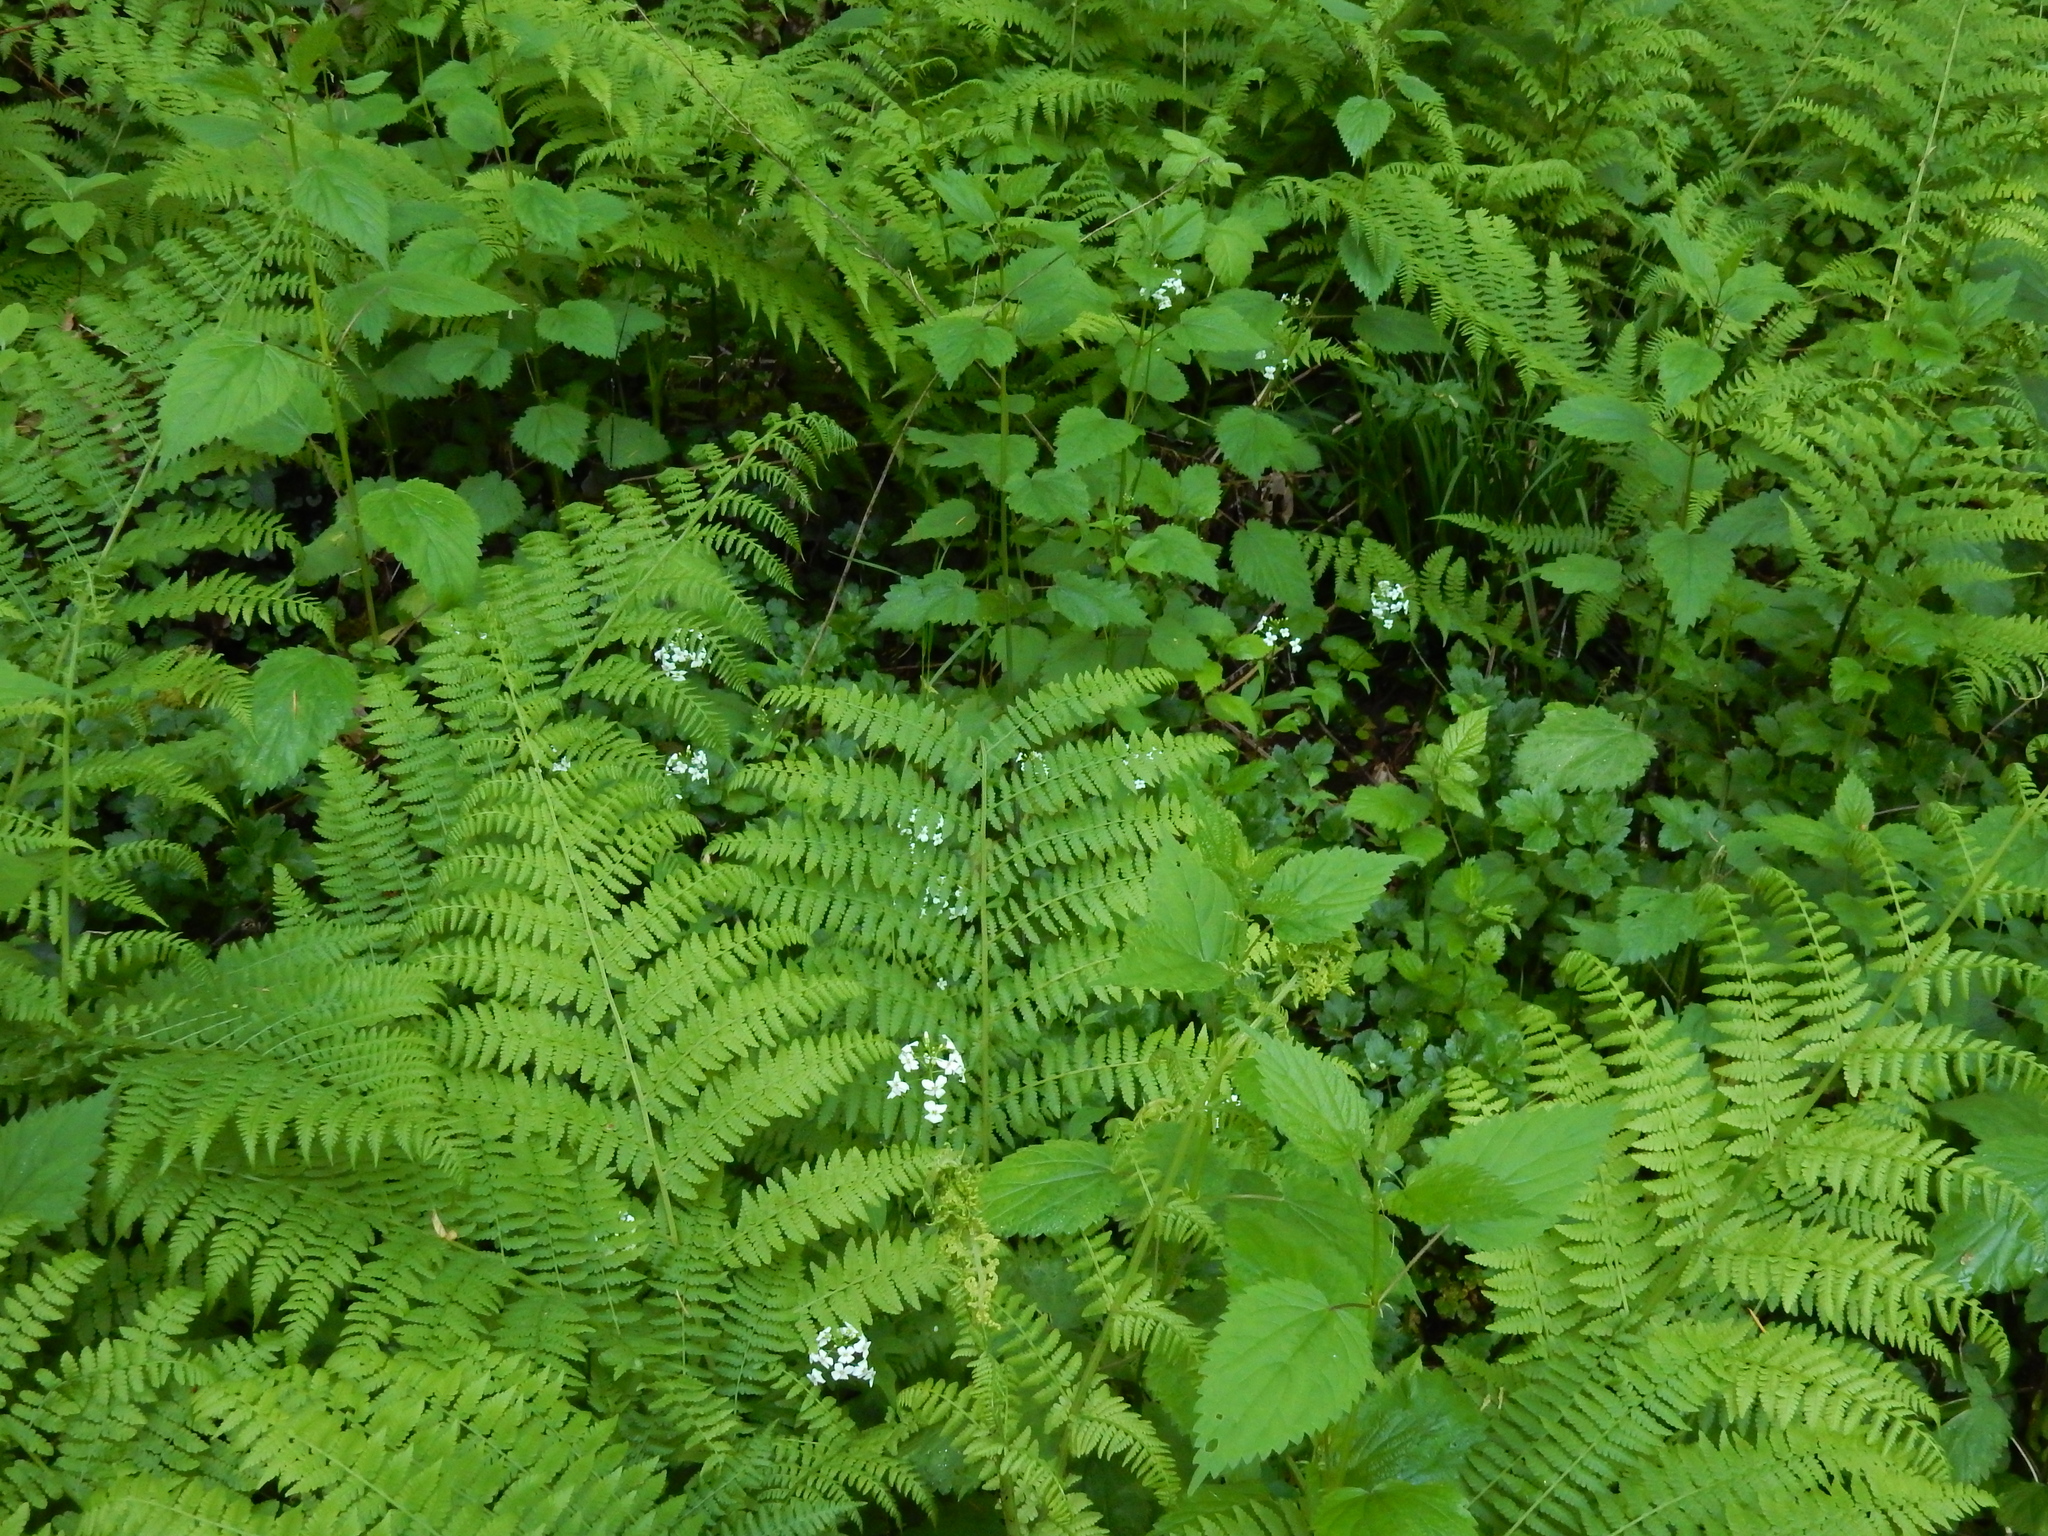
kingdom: Plantae
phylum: Tracheophyta
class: Polypodiopsida
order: Polypodiales
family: Athyriaceae
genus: Athyrium
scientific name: Athyrium cyclosorum
